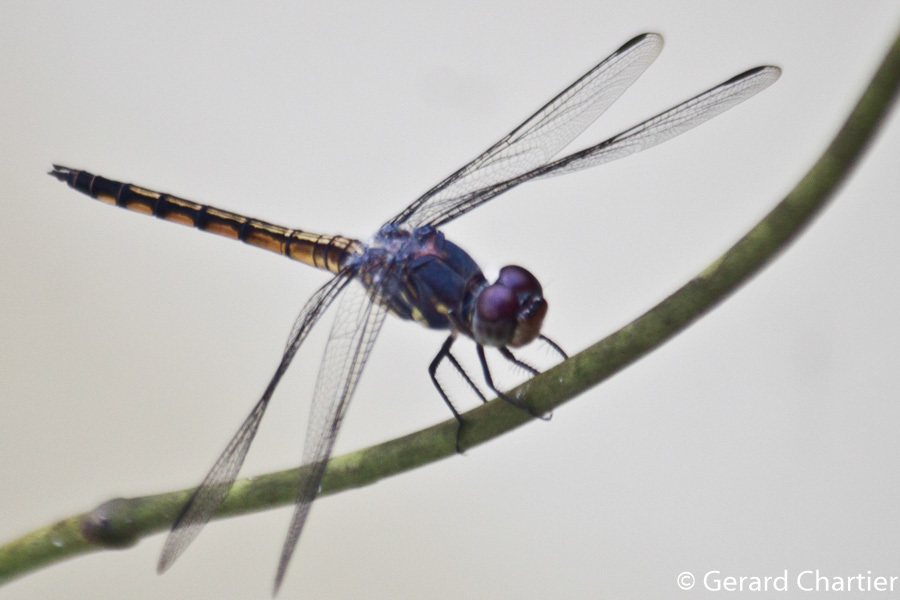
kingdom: Animalia
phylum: Arthropoda
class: Insecta
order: Odonata
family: Libellulidae
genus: Potamarcha
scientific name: Potamarcha congener
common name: Blue chaser
